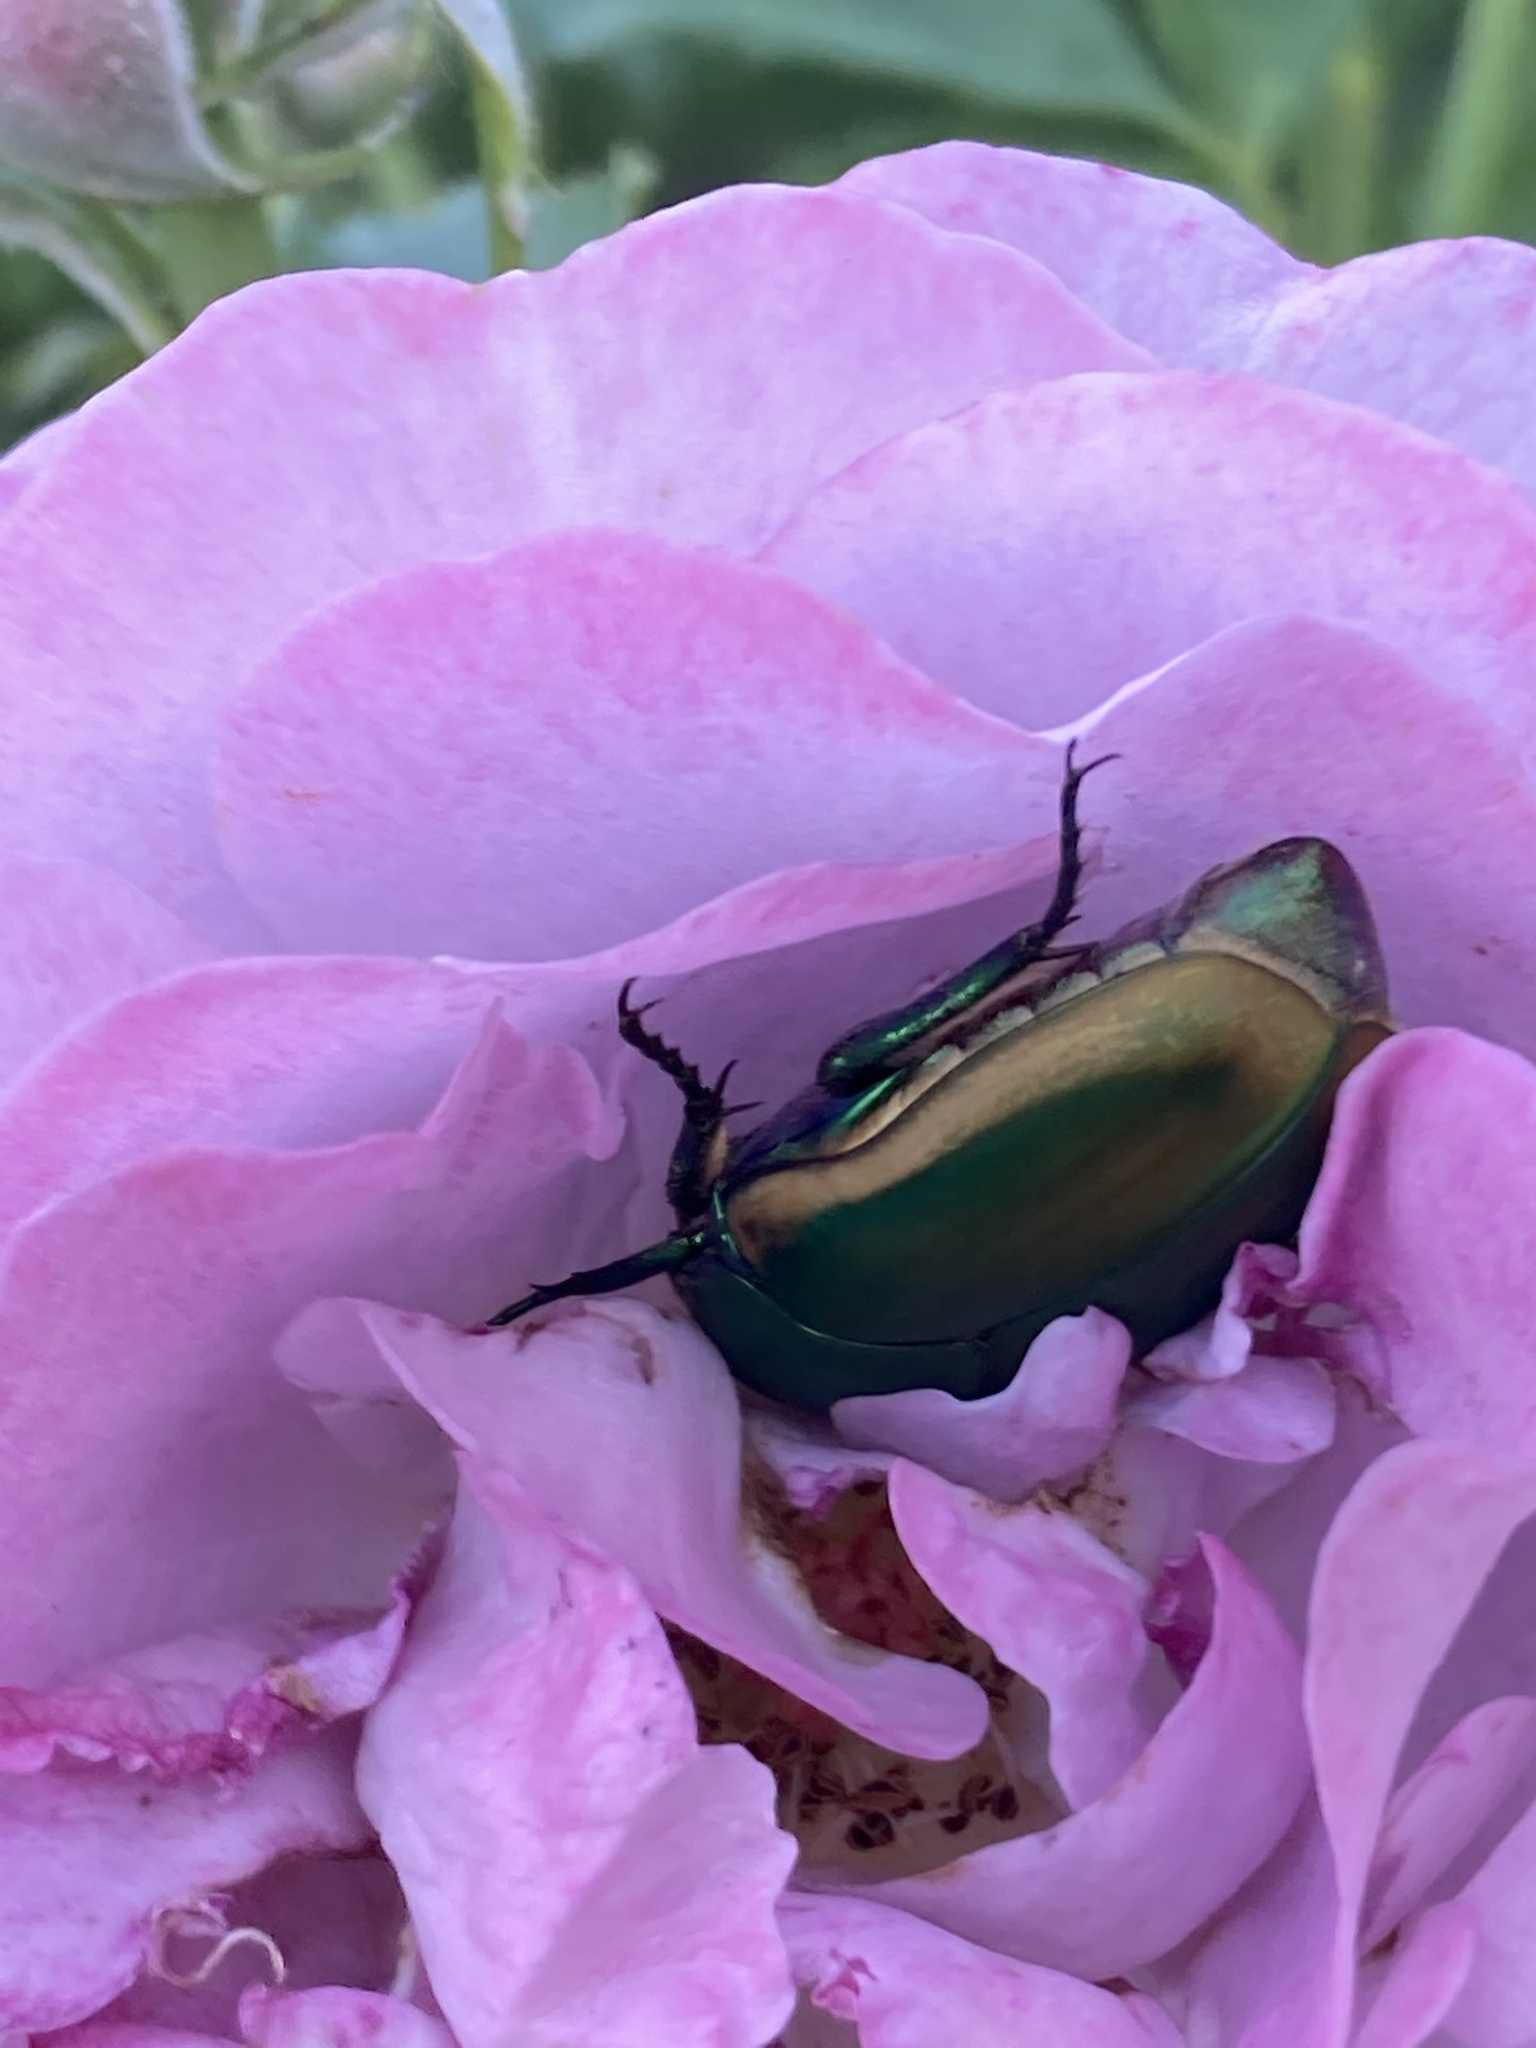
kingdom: Animalia
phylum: Arthropoda
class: Insecta
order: Coleoptera
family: Scarabaeidae
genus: Cotinis
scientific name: Cotinis mutabilis
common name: Figeater beetle
